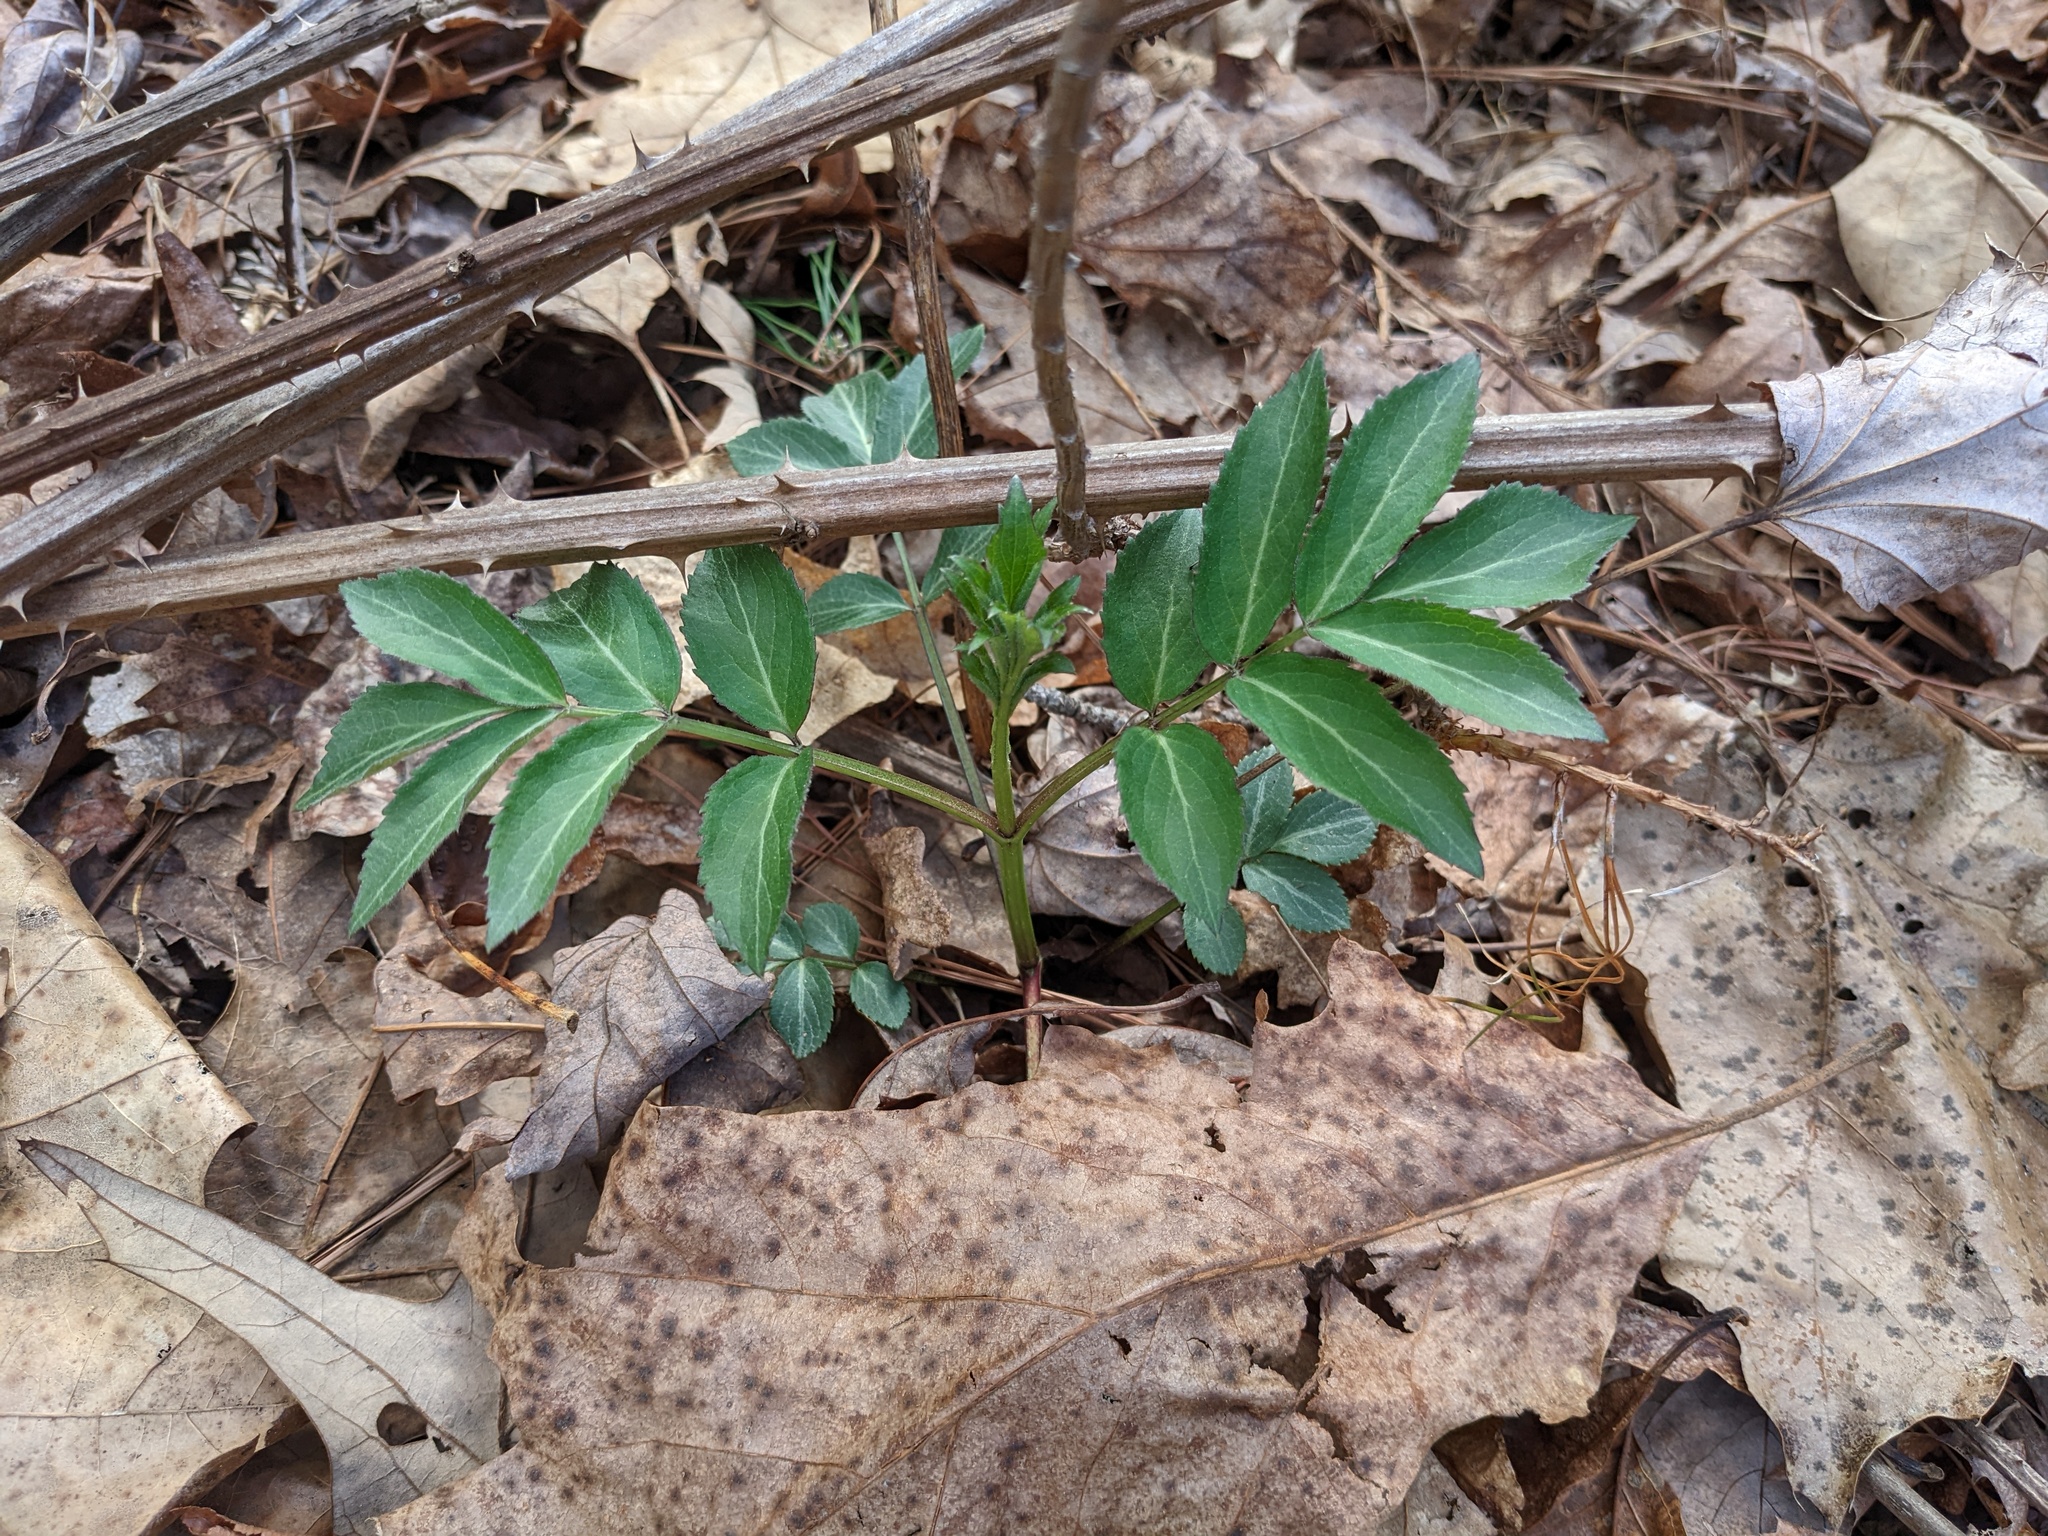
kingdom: Plantae
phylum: Tracheophyta
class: Magnoliopsida
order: Dipsacales
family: Viburnaceae
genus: Sambucus
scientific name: Sambucus canadensis
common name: American elder
